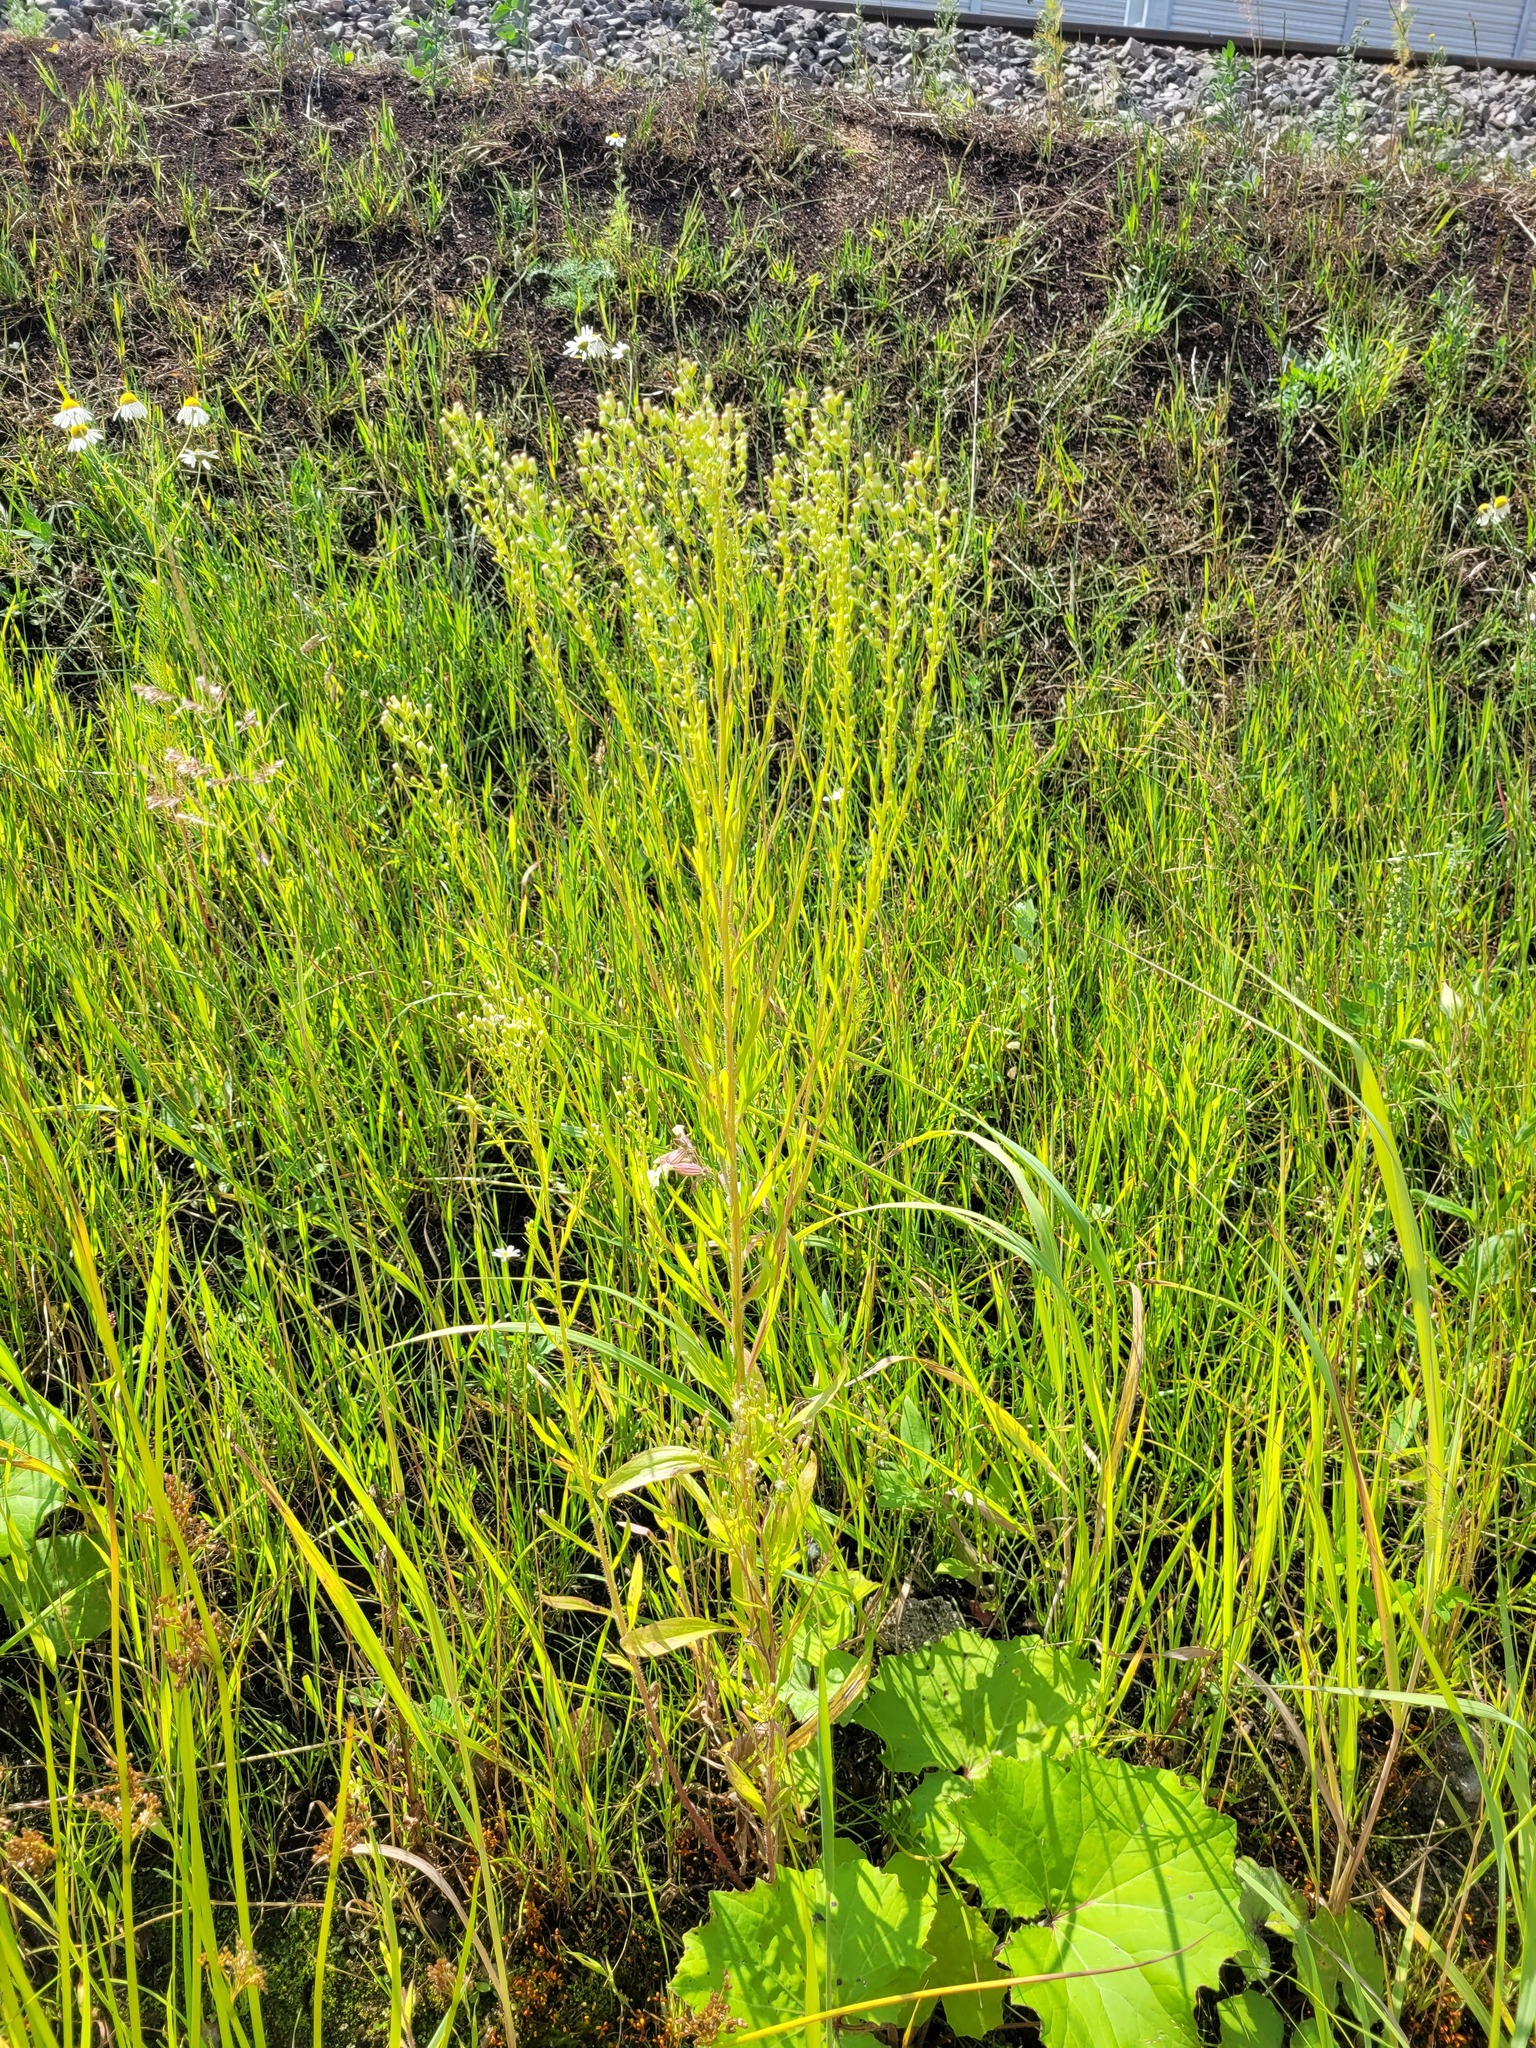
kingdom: Plantae
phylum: Tracheophyta
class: Magnoliopsida
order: Asterales
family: Asteraceae
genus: Erigeron
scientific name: Erigeron canadensis
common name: Canadian fleabane
